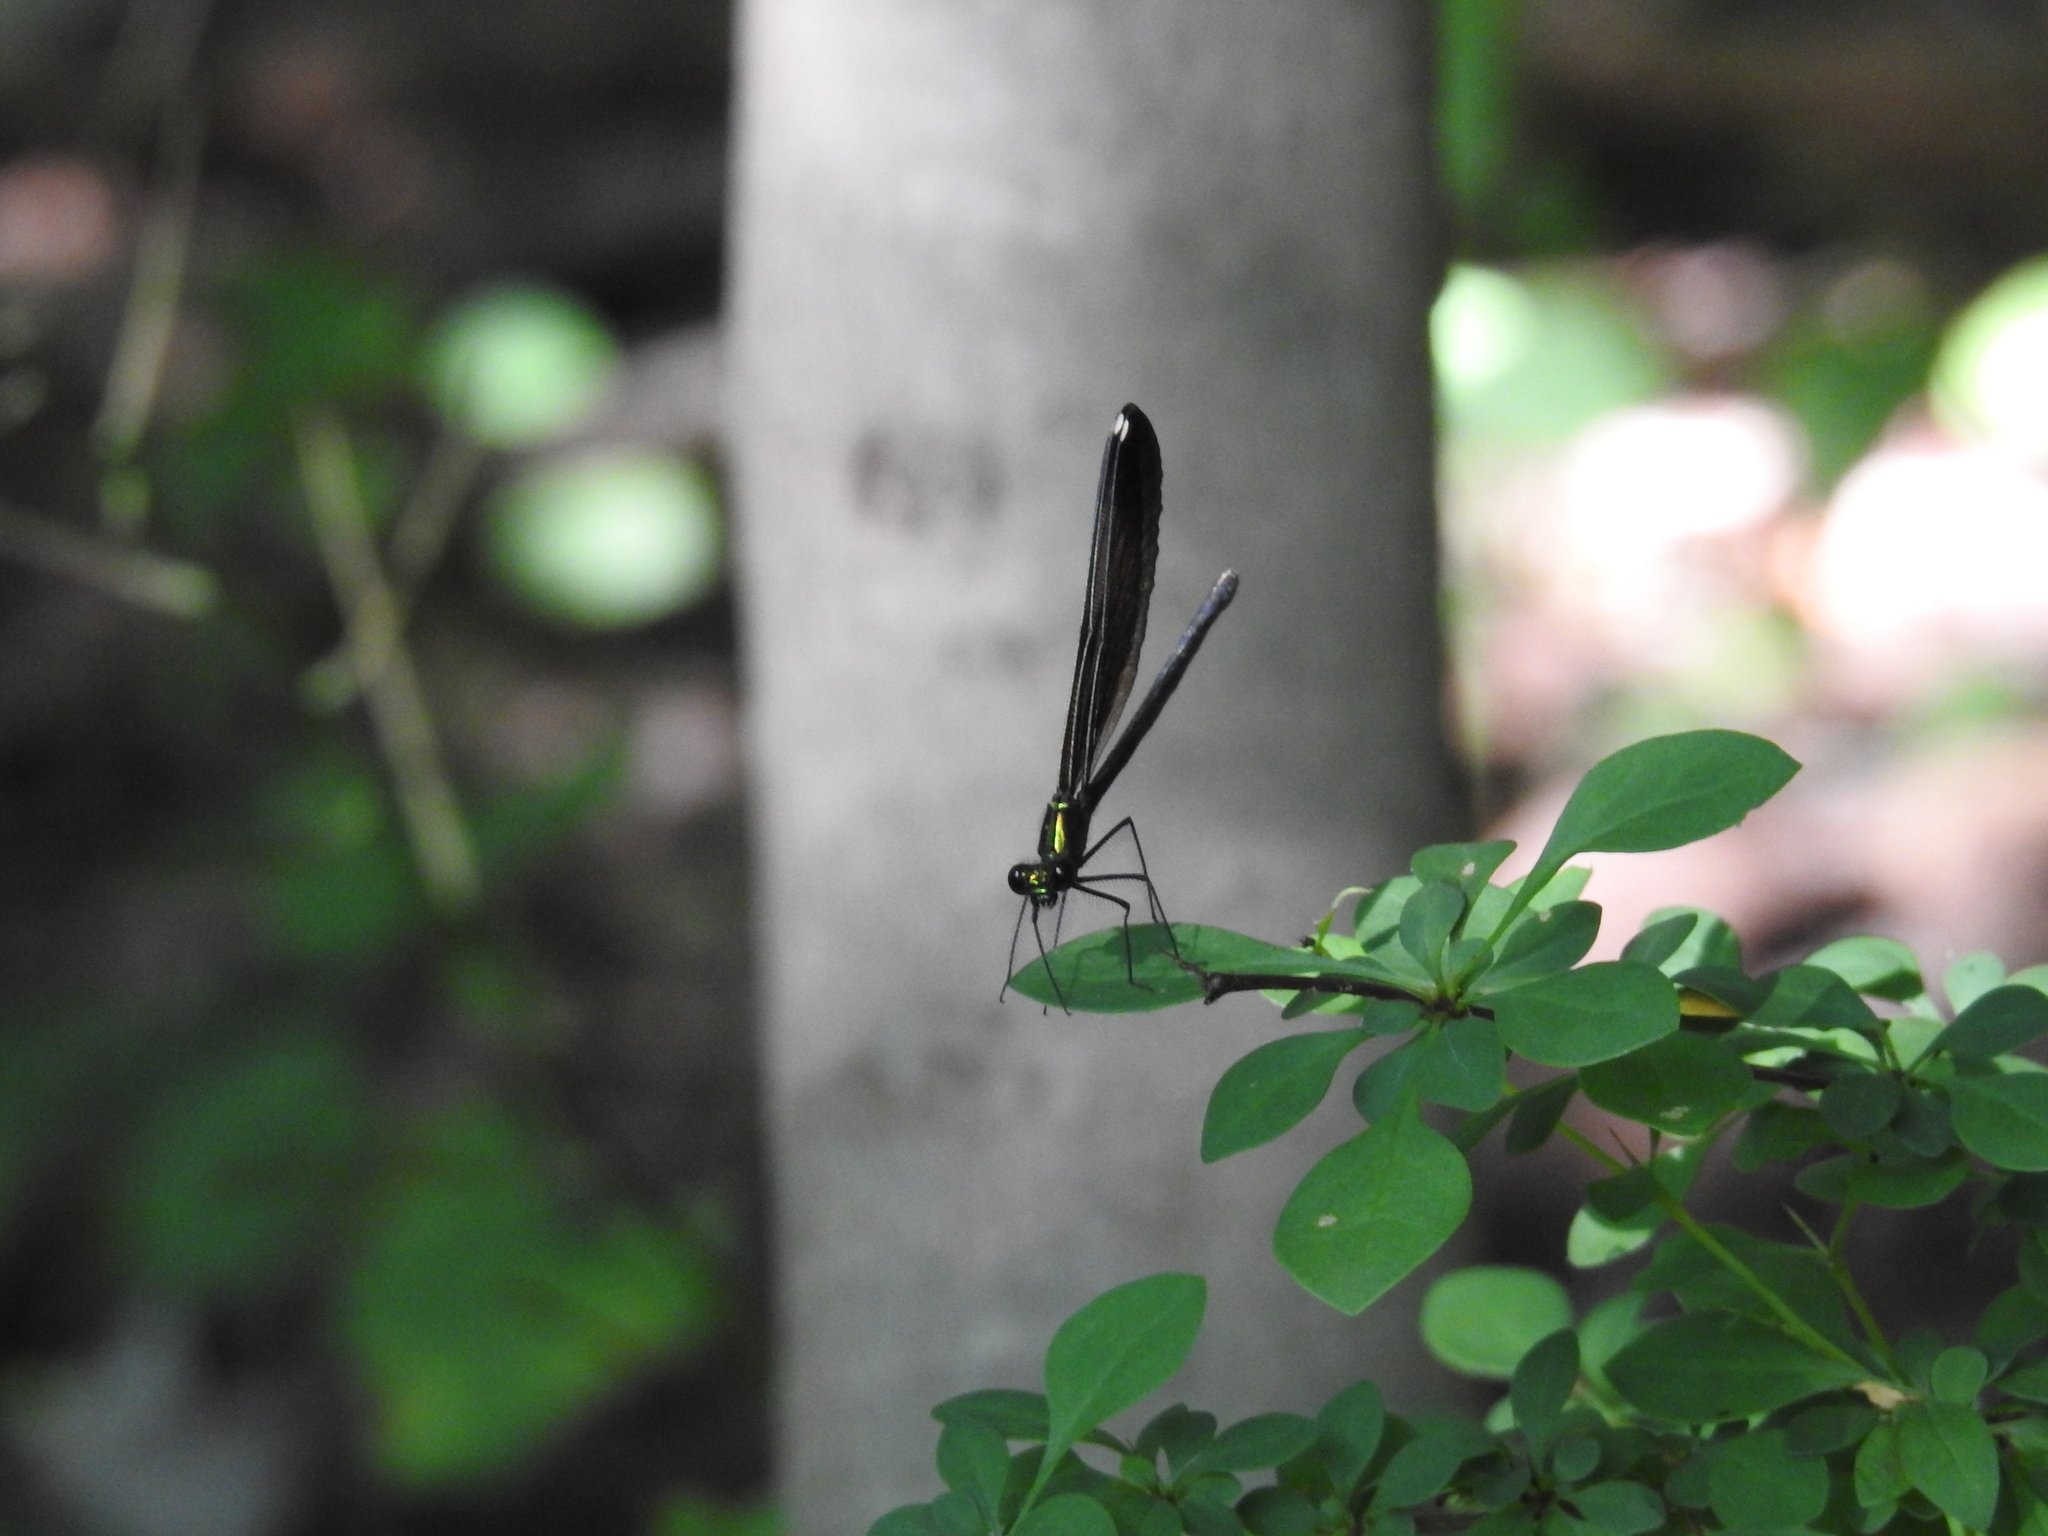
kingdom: Animalia
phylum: Arthropoda
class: Insecta
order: Odonata
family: Calopterygidae
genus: Calopteryx
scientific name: Calopteryx maculata
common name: Ebony jewelwing
